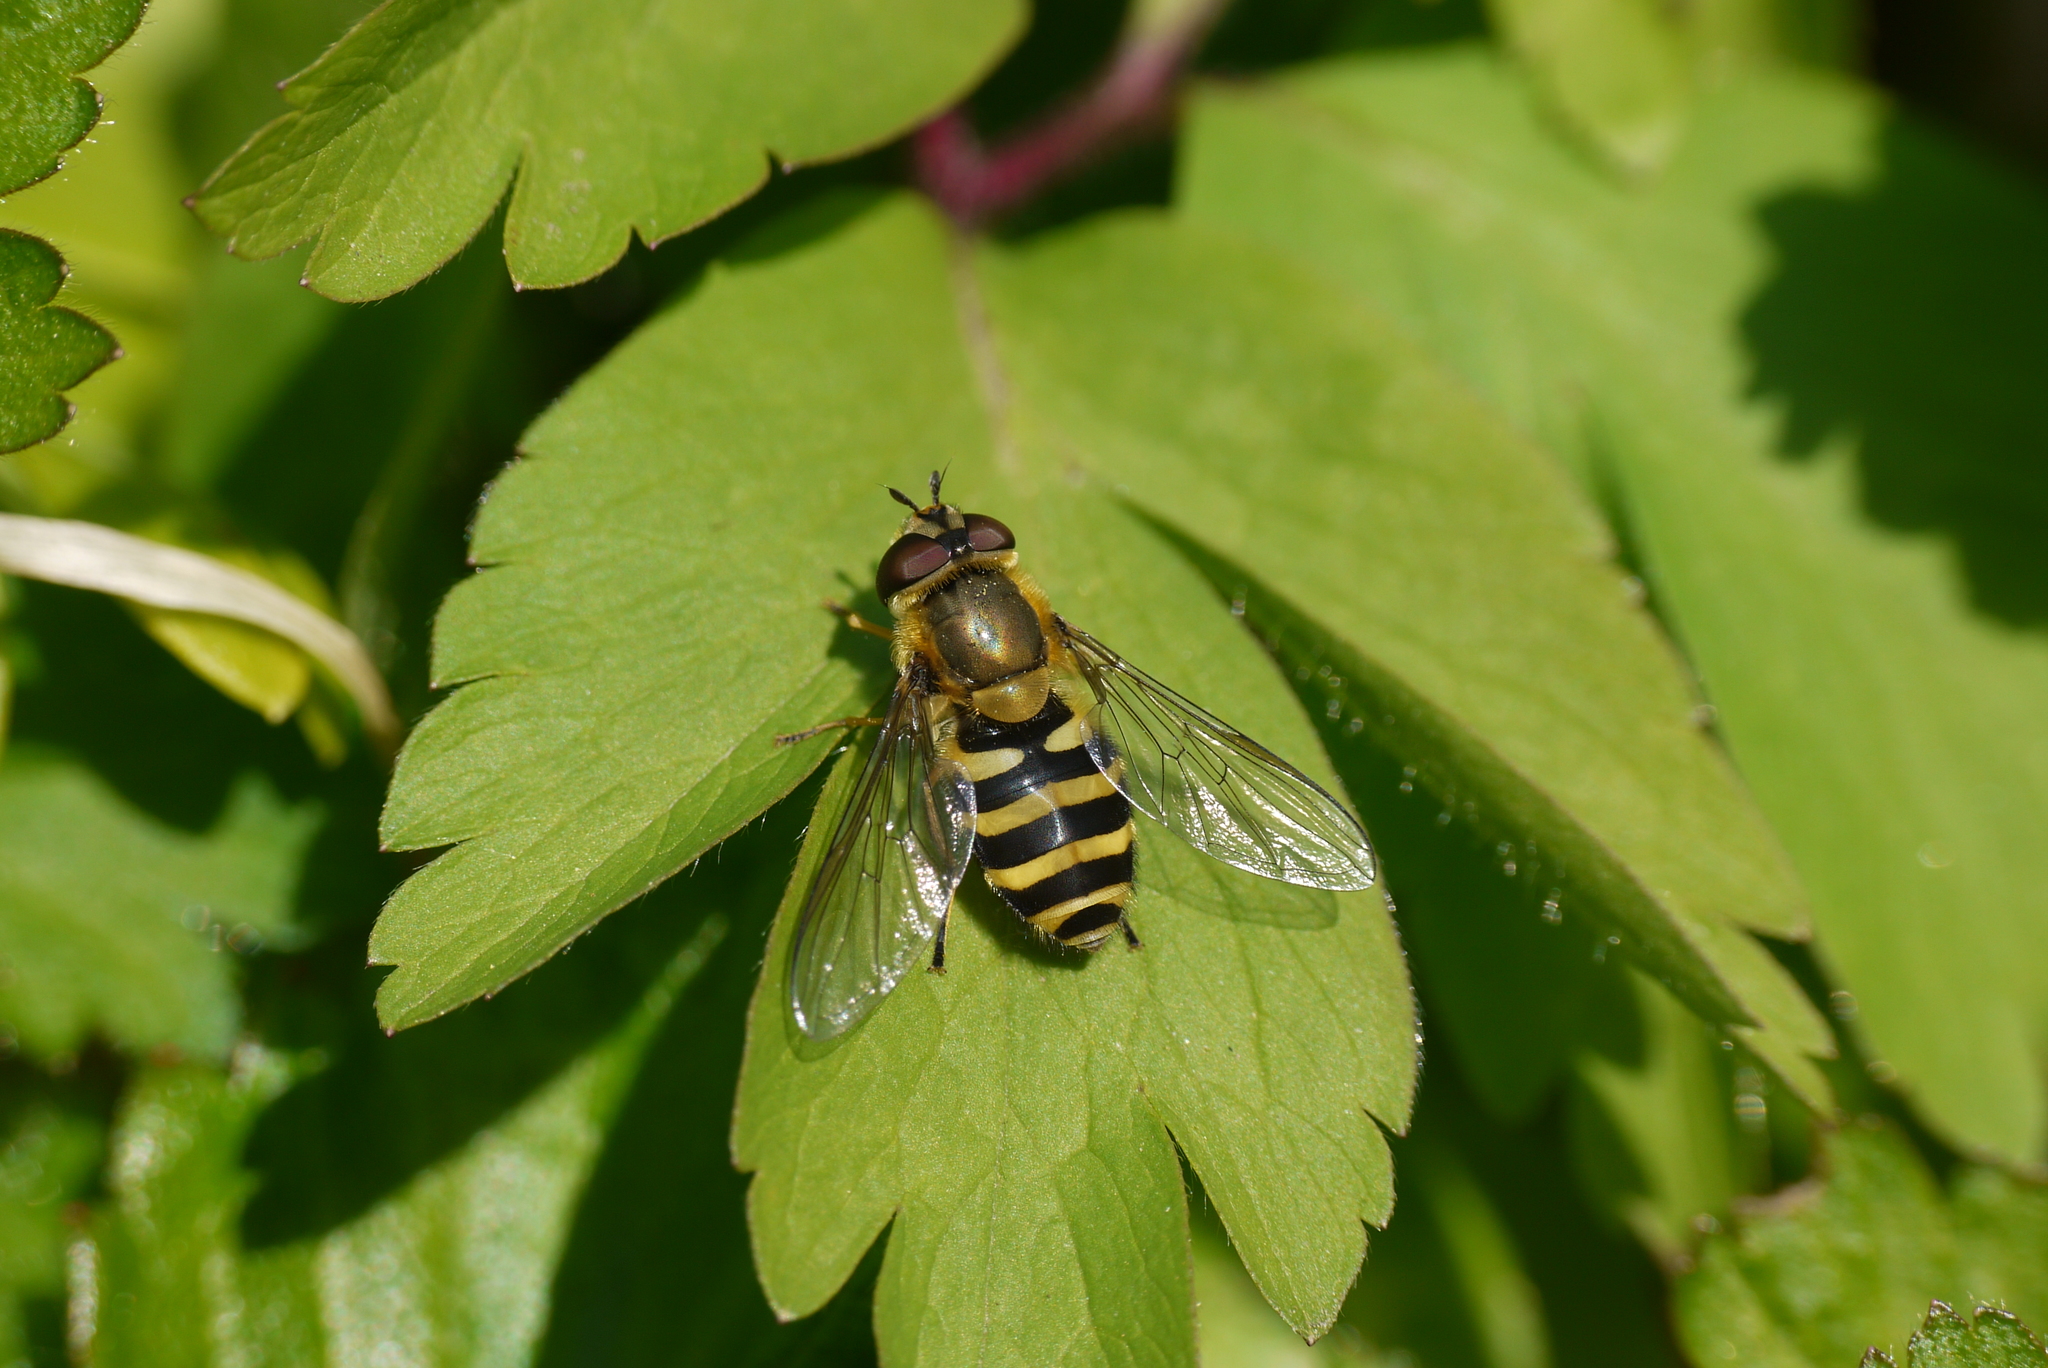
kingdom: Animalia
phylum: Arthropoda
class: Insecta
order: Diptera
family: Syrphidae
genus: Syrphus
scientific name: Syrphus
